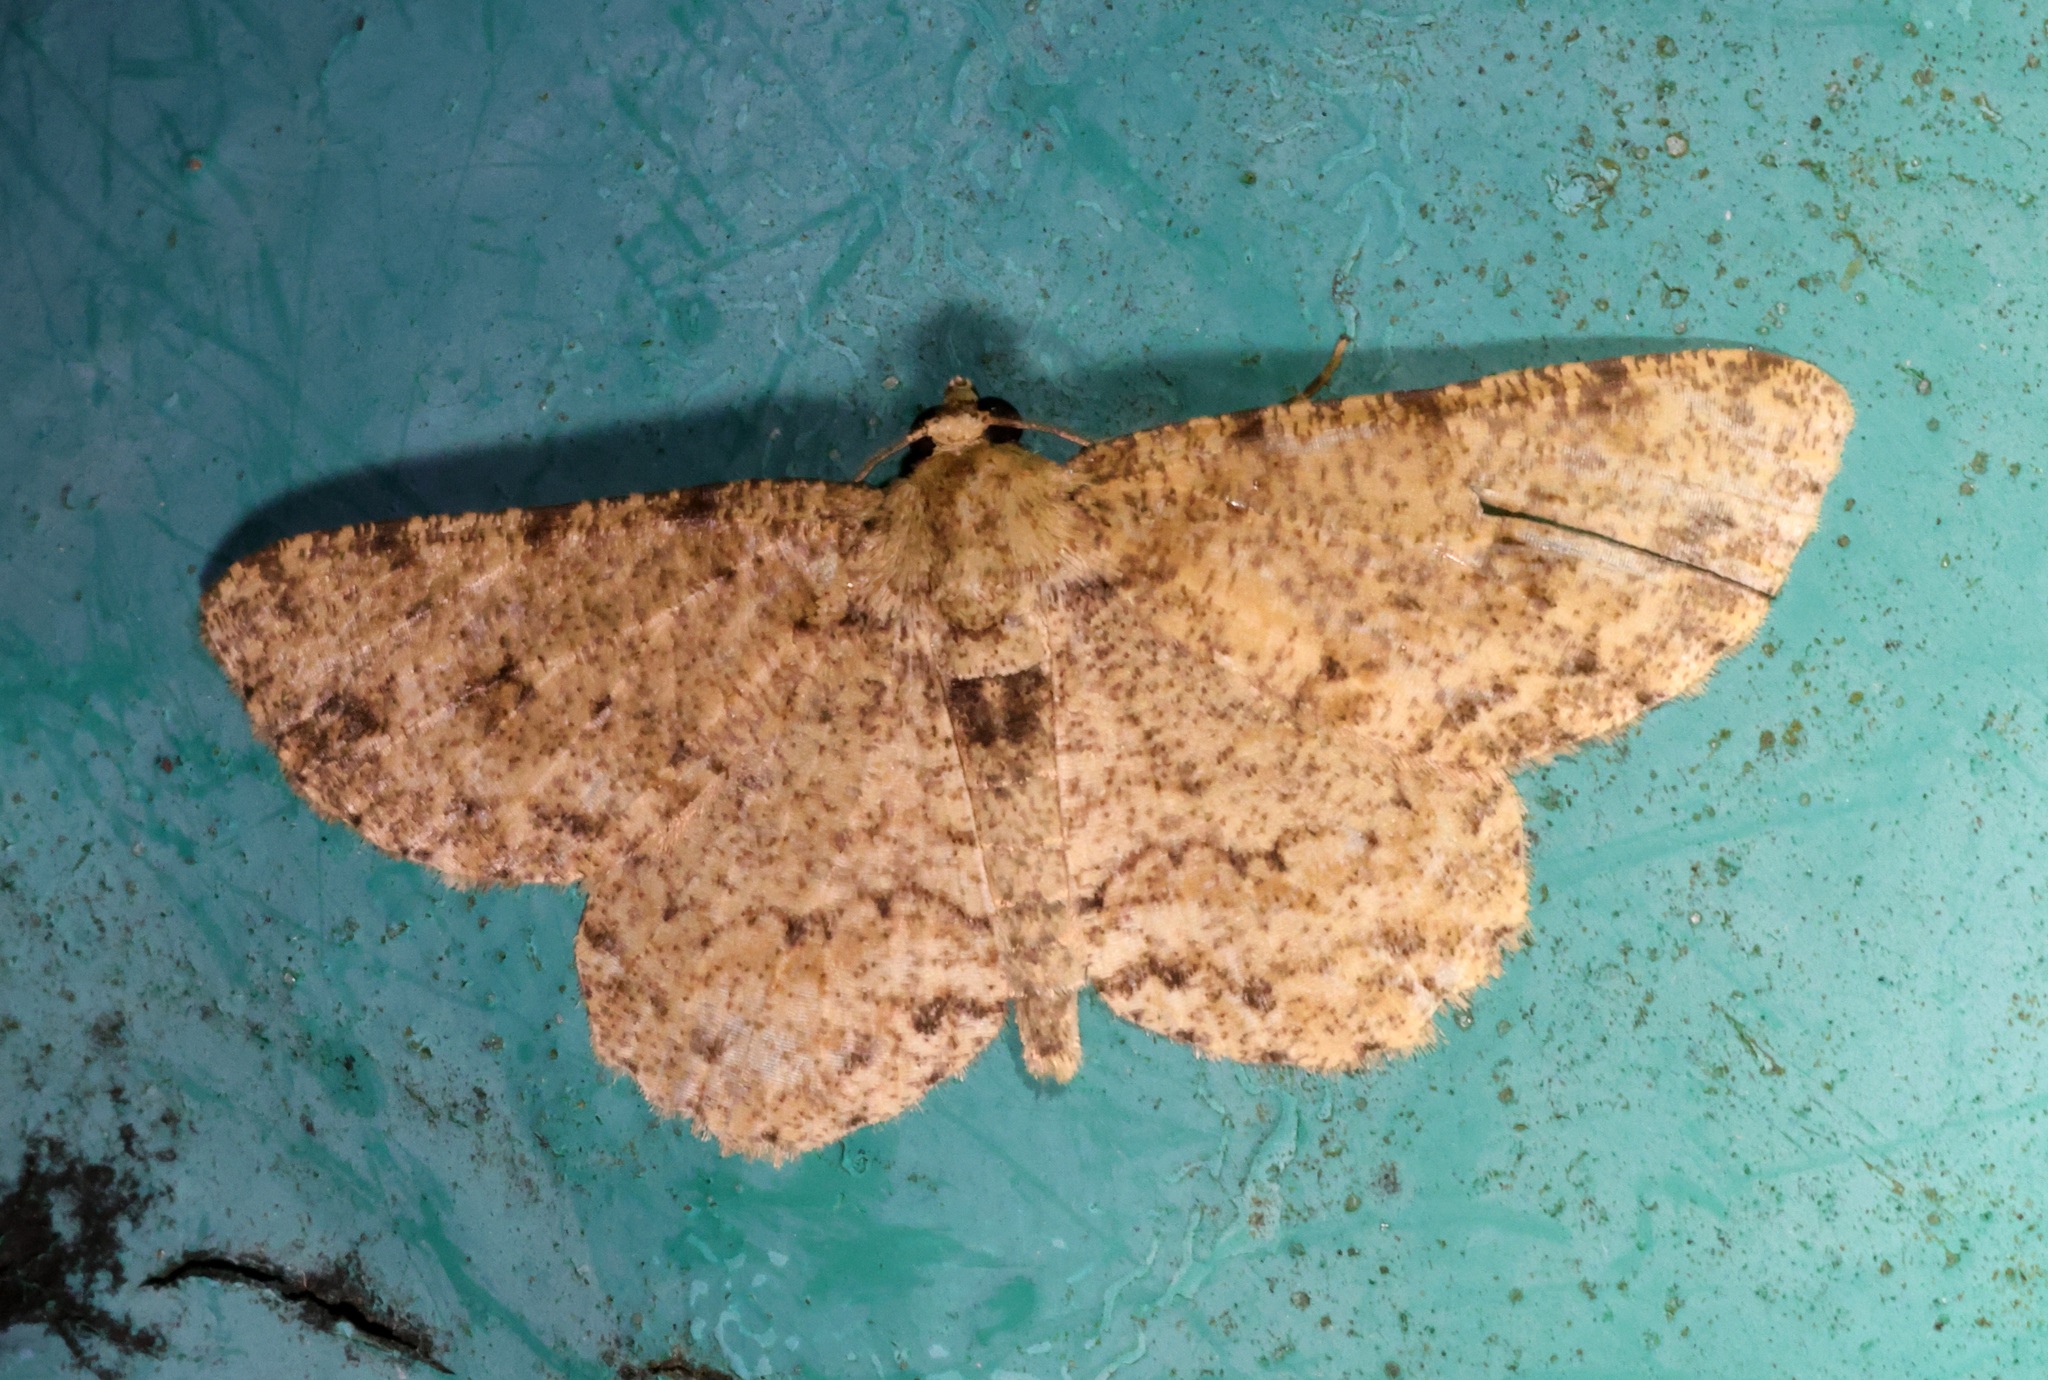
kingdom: Animalia
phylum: Arthropoda
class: Insecta
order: Lepidoptera
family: Geometridae
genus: Ectropis
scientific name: Ectropis bhurmitra
